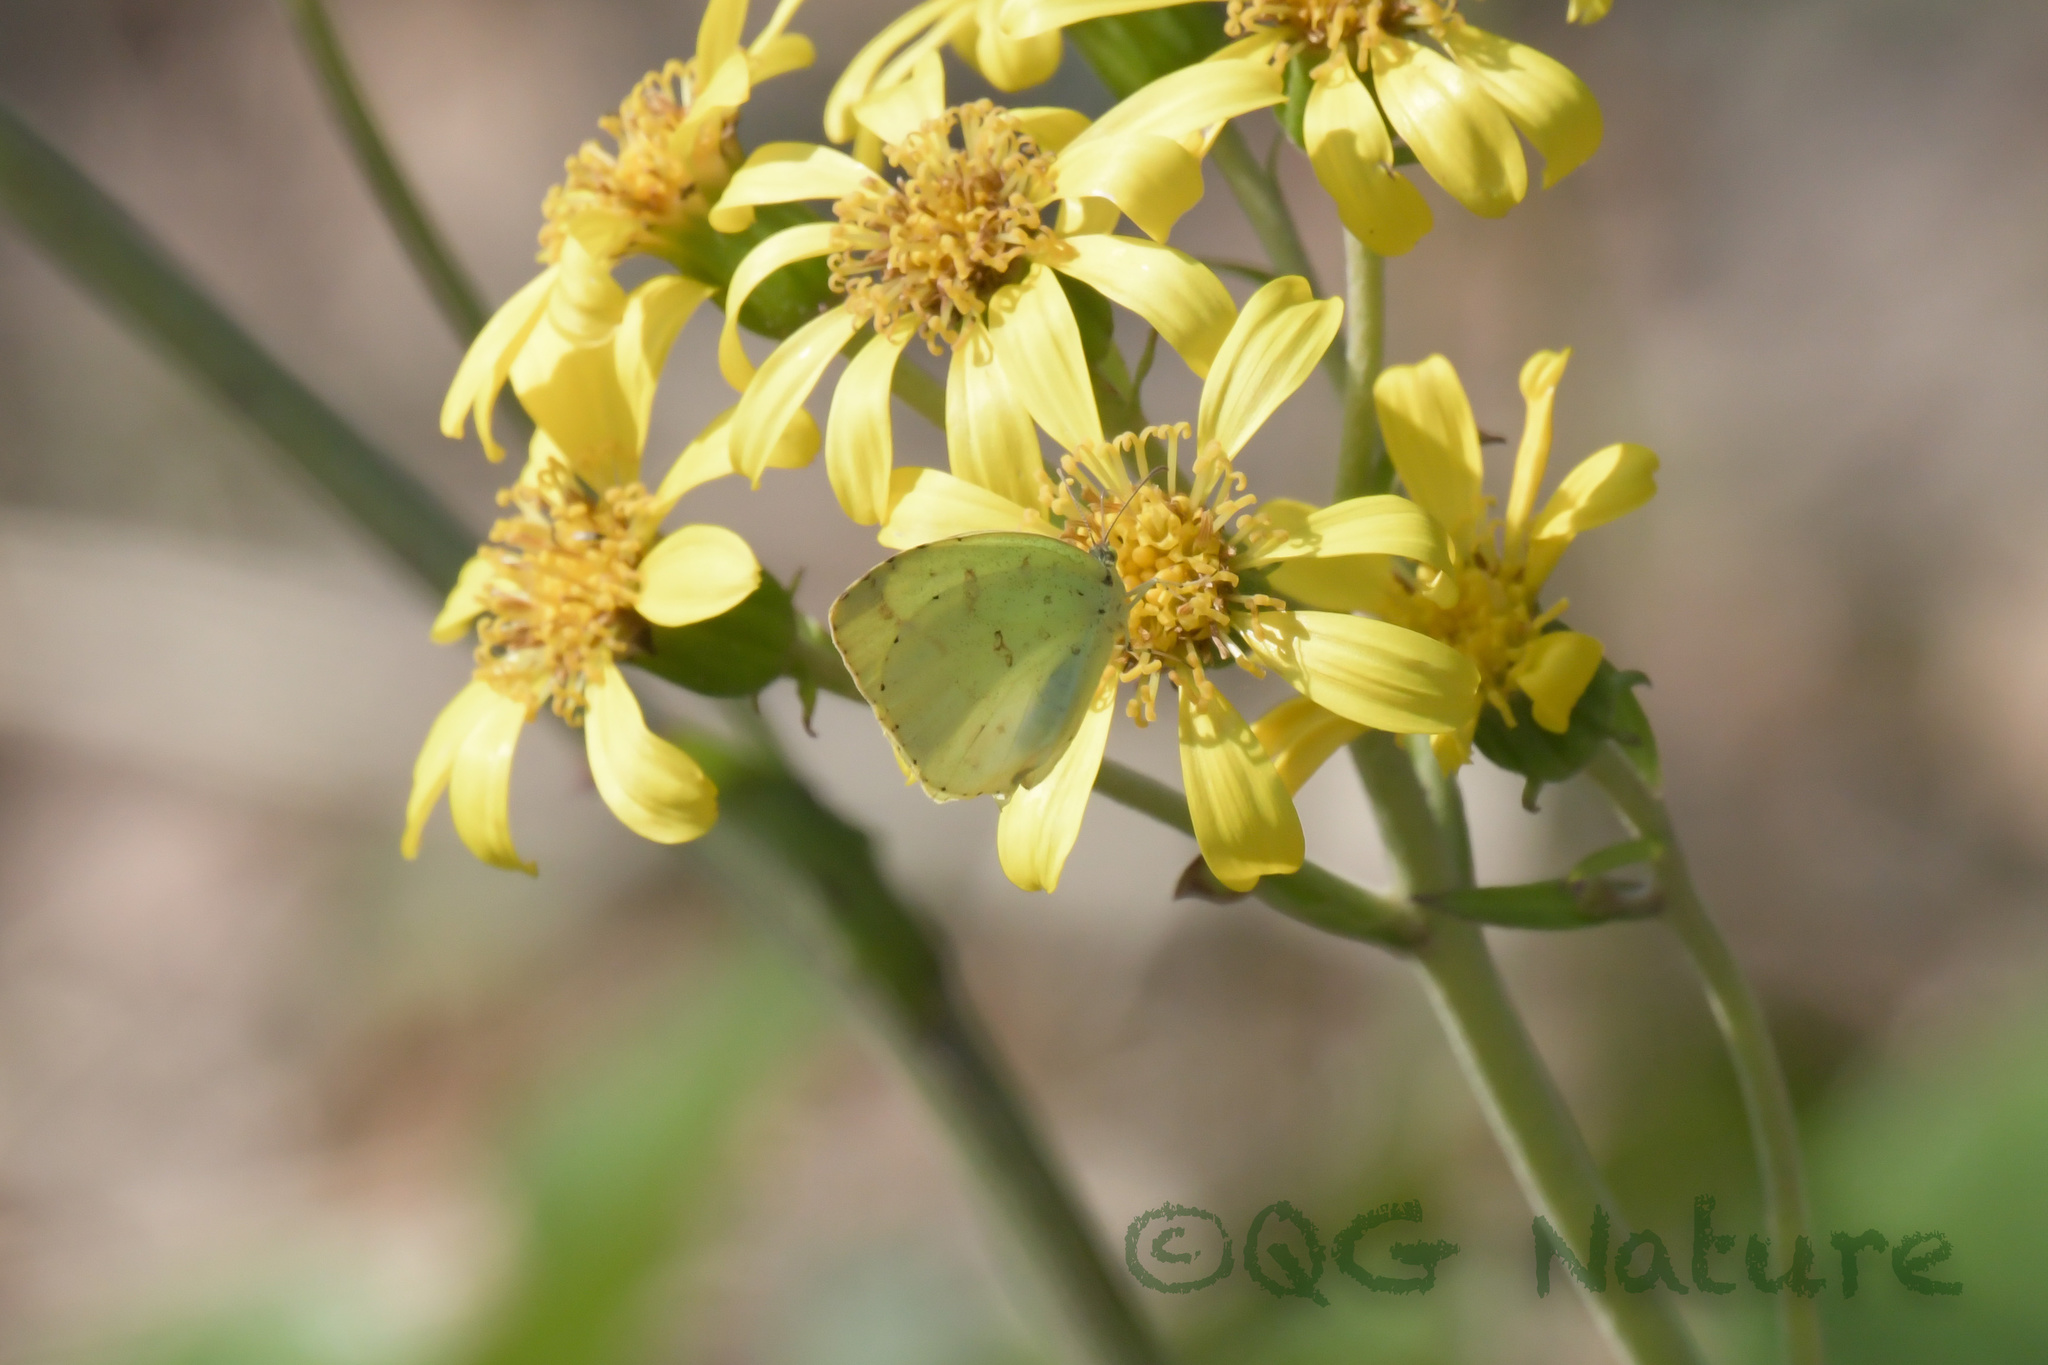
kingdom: Animalia
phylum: Arthropoda
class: Insecta
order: Lepidoptera
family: Pieridae
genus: Eurema
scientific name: Eurema mandarina
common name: Japanese common grass yellow
